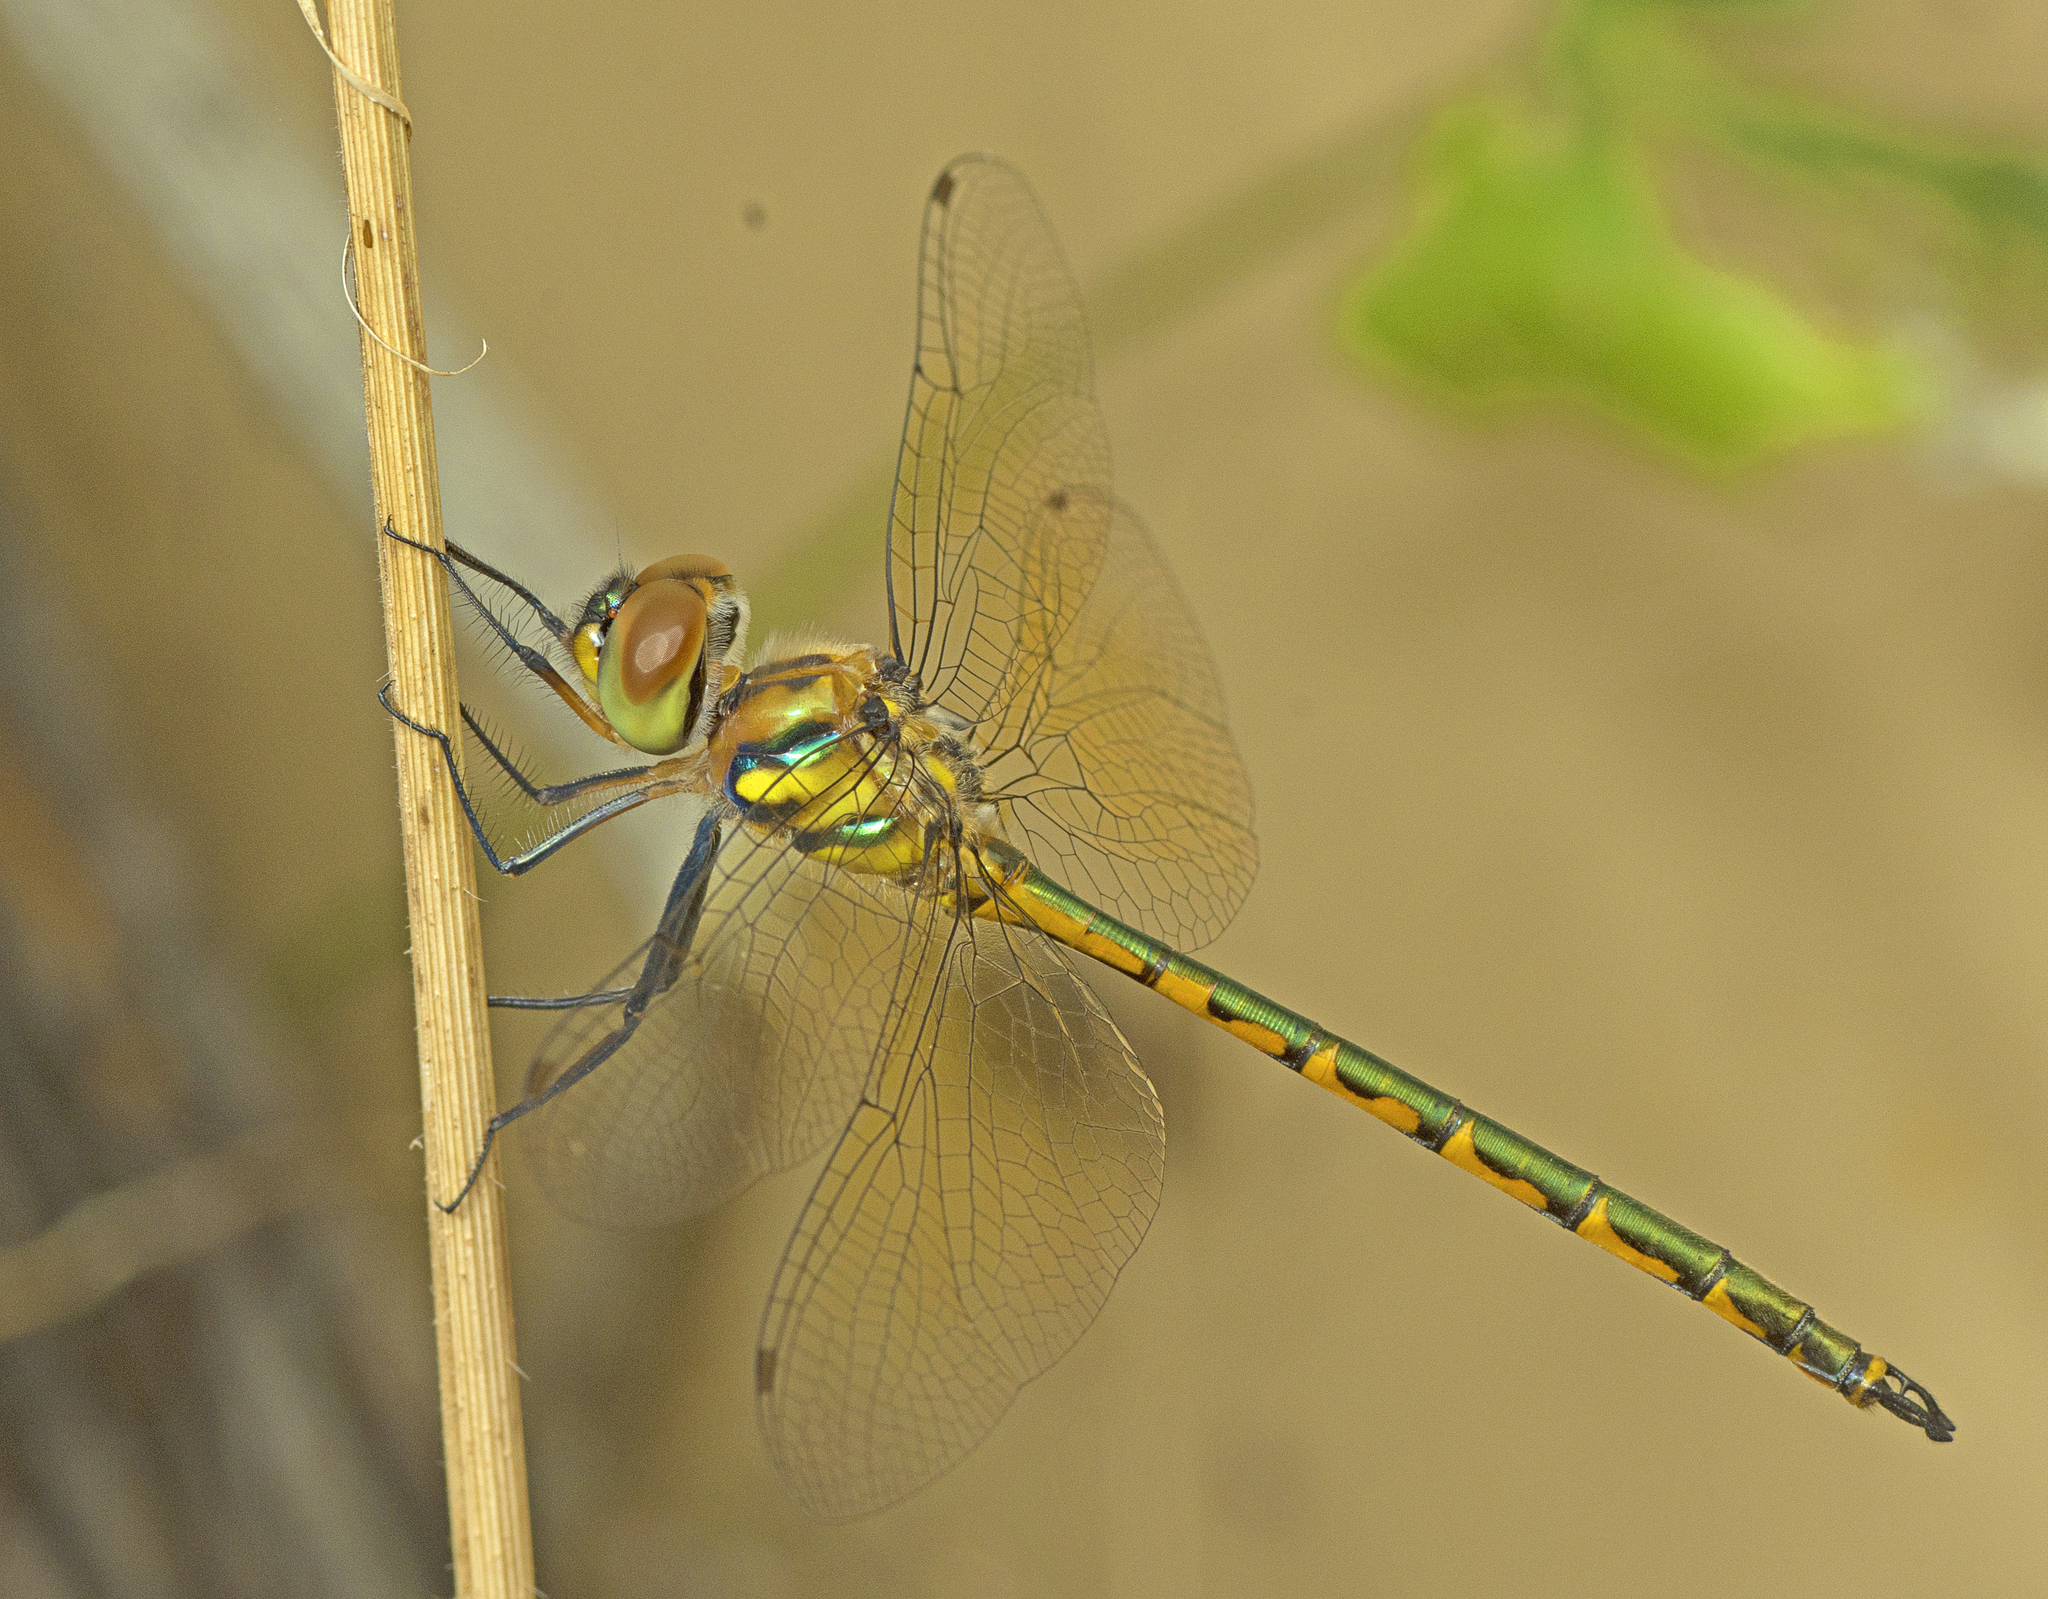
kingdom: Animalia
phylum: Arthropoda
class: Insecta
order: Odonata
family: Corduliidae
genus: Hemicordulia
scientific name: Hemicordulia australiae
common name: Sentry dragonfly
